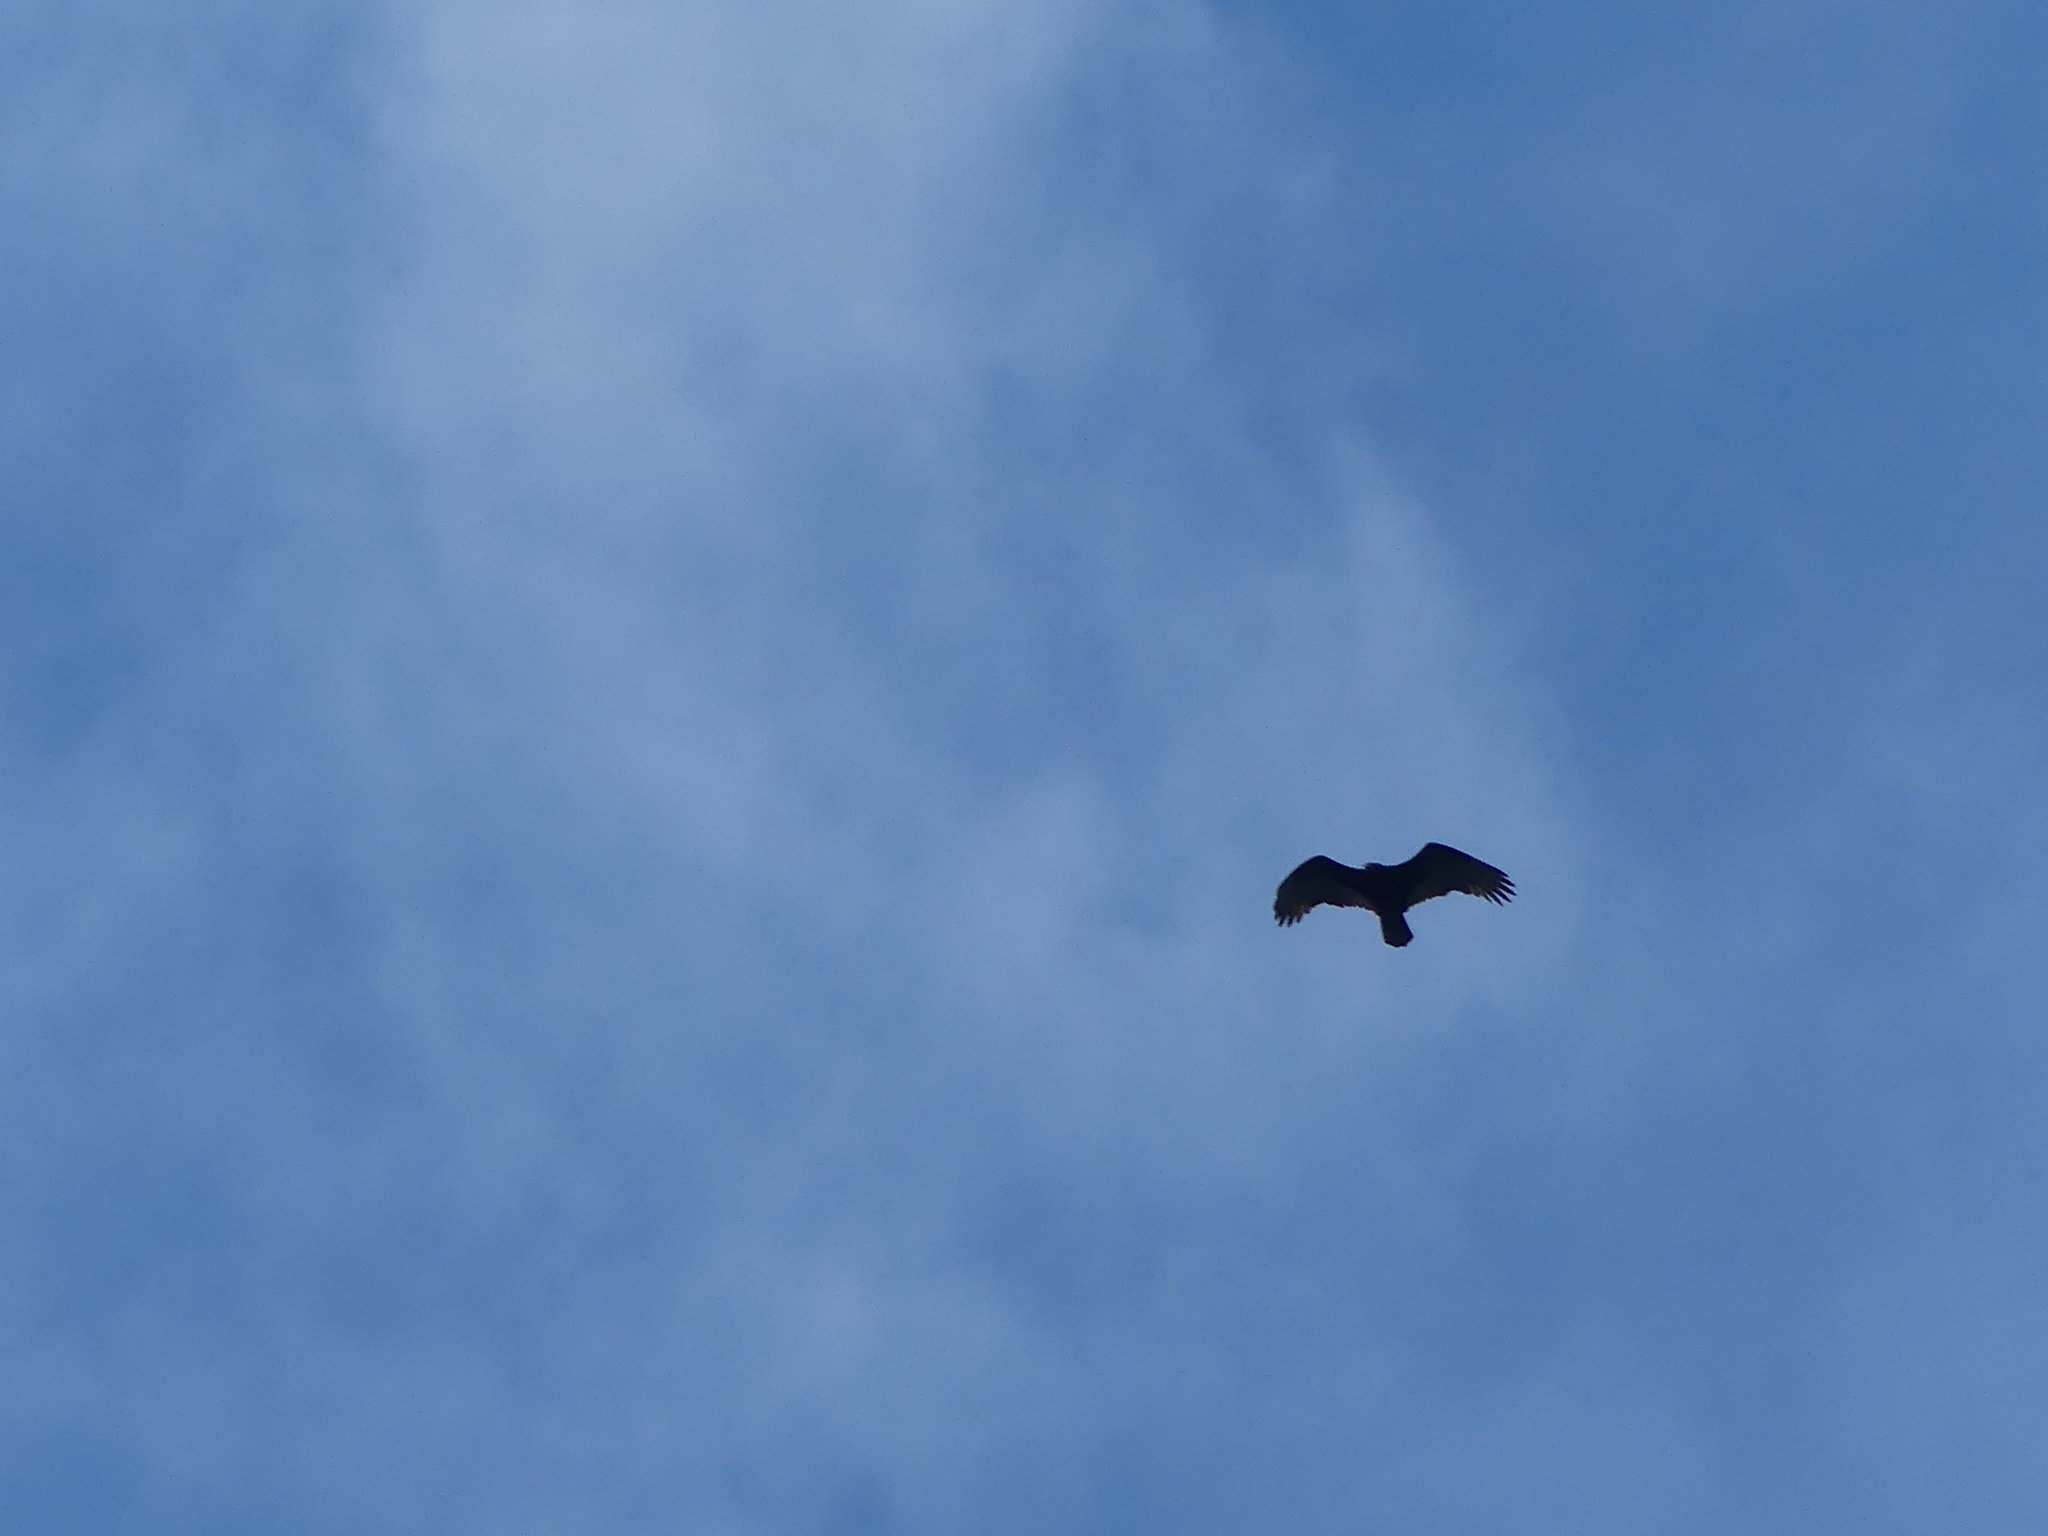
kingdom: Animalia
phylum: Chordata
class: Aves
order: Accipitriformes
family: Cathartidae
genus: Cathartes
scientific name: Cathartes aura
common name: Turkey vulture
